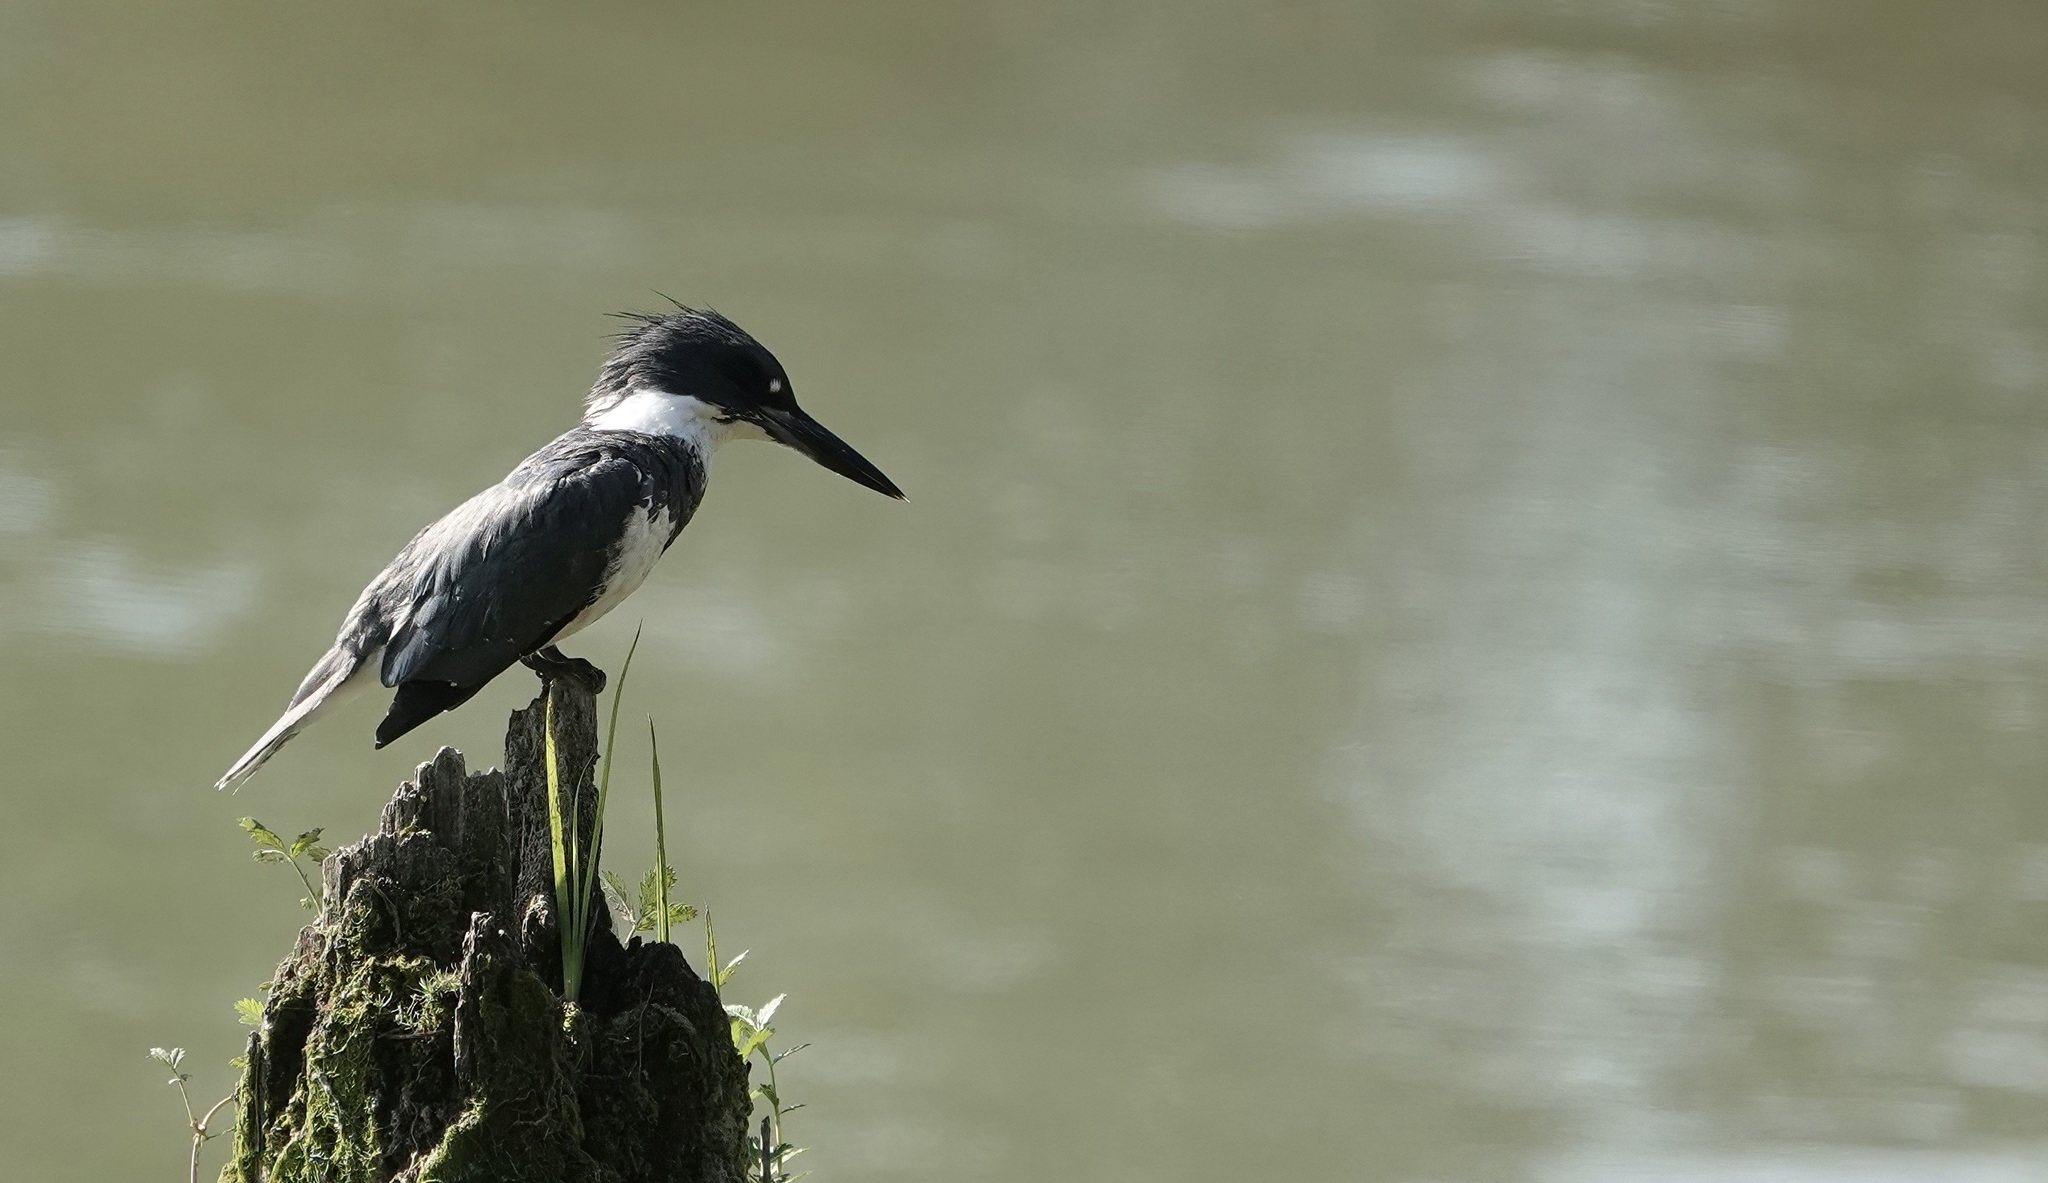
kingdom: Animalia
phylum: Chordata
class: Aves
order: Coraciiformes
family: Alcedinidae
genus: Megaceryle
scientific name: Megaceryle alcyon
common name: Belted kingfisher
